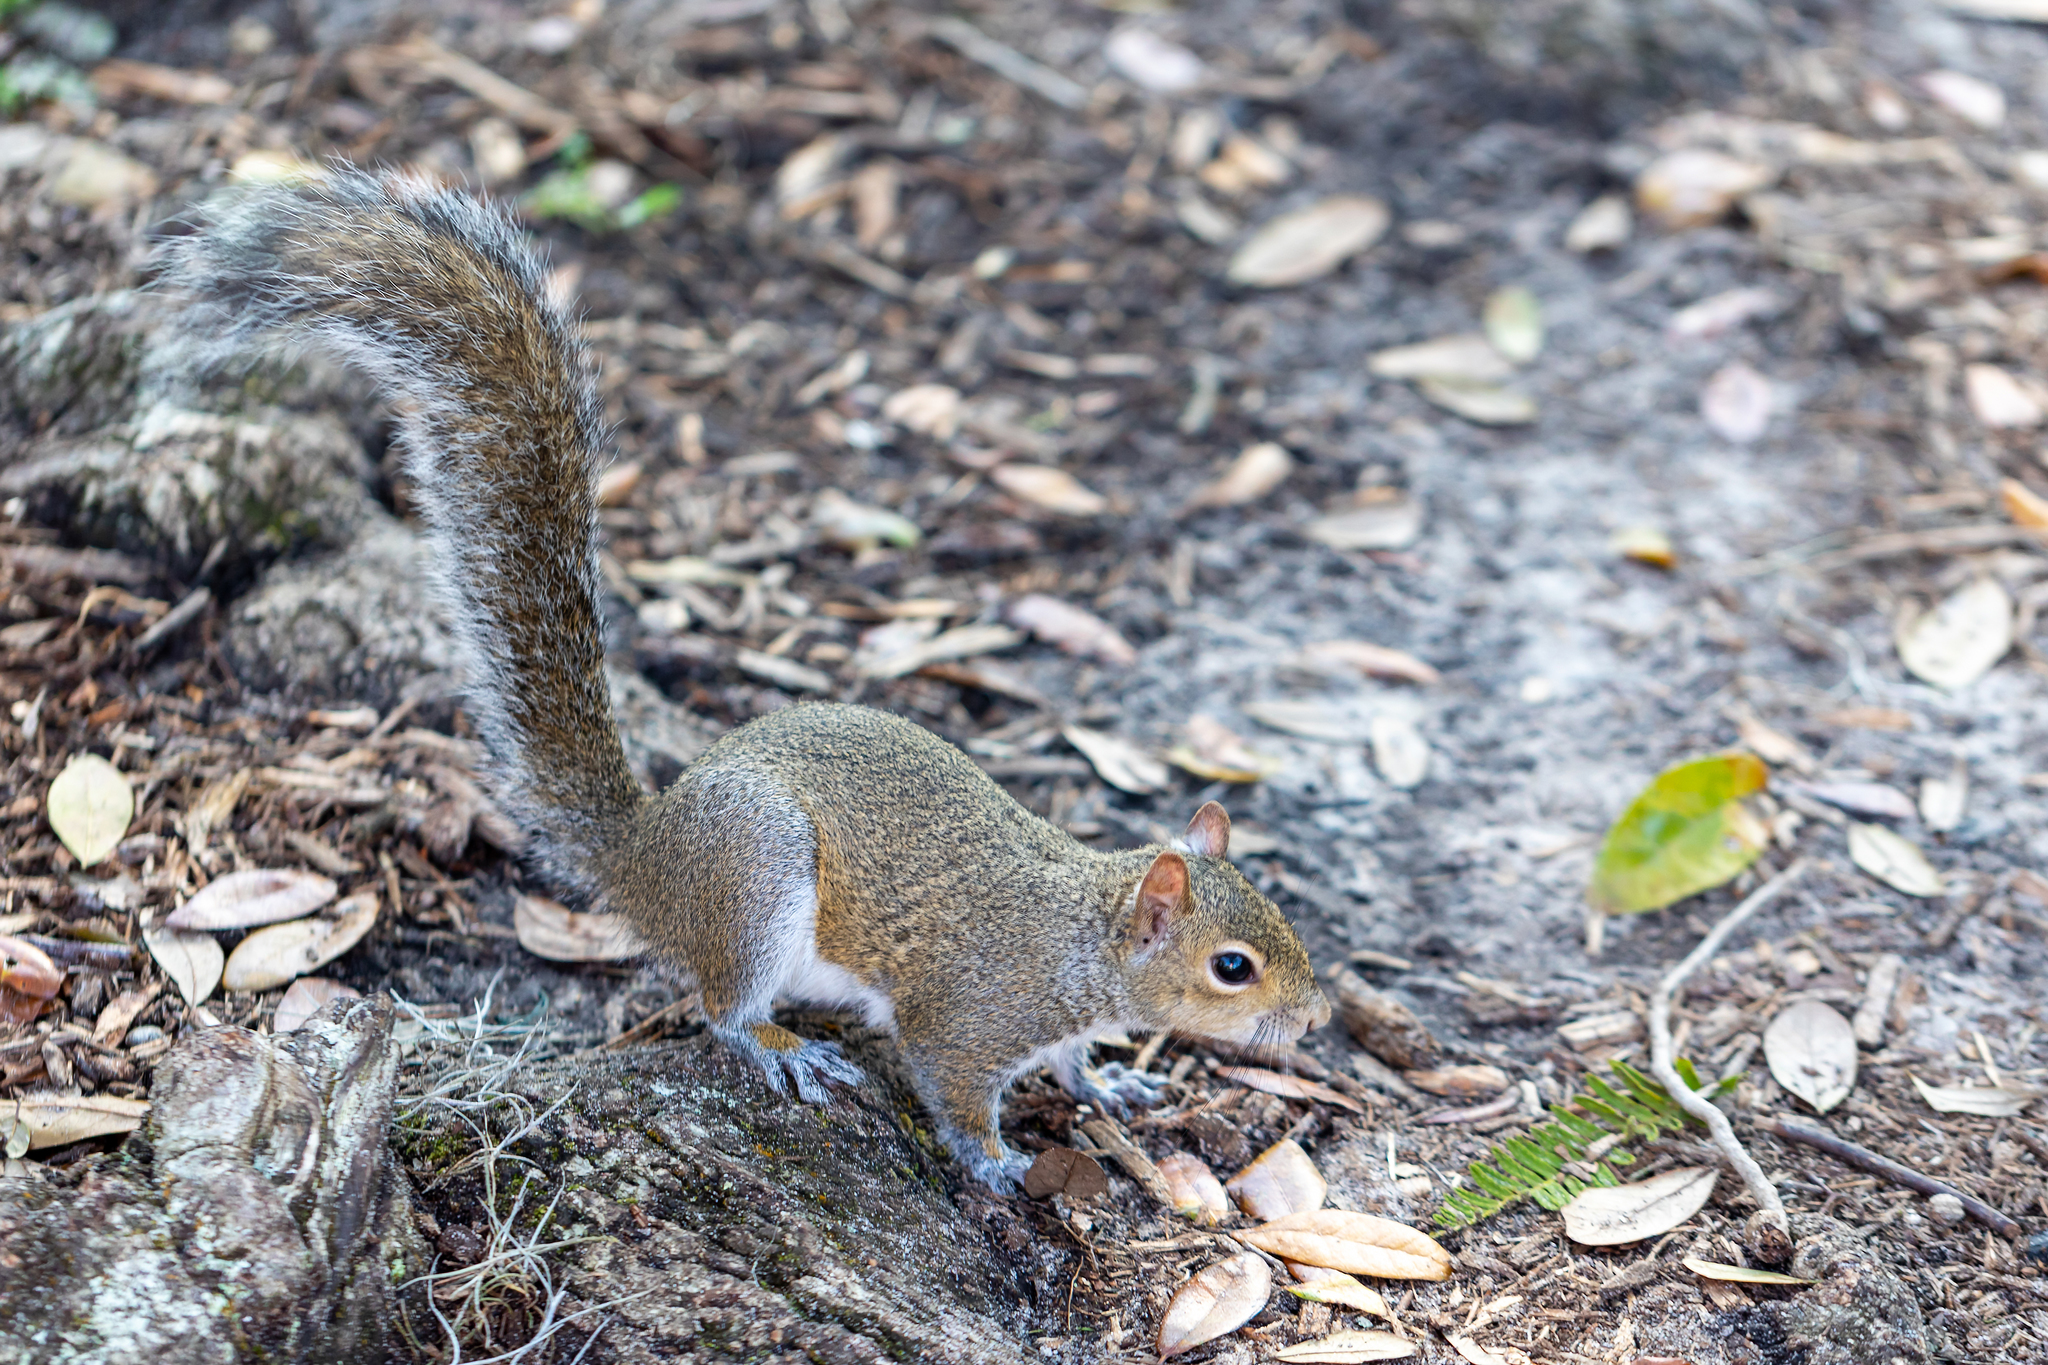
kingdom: Animalia
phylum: Chordata
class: Mammalia
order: Rodentia
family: Sciuridae
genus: Sciurus
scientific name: Sciurus carolinensis
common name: Eastern gray squirrel
